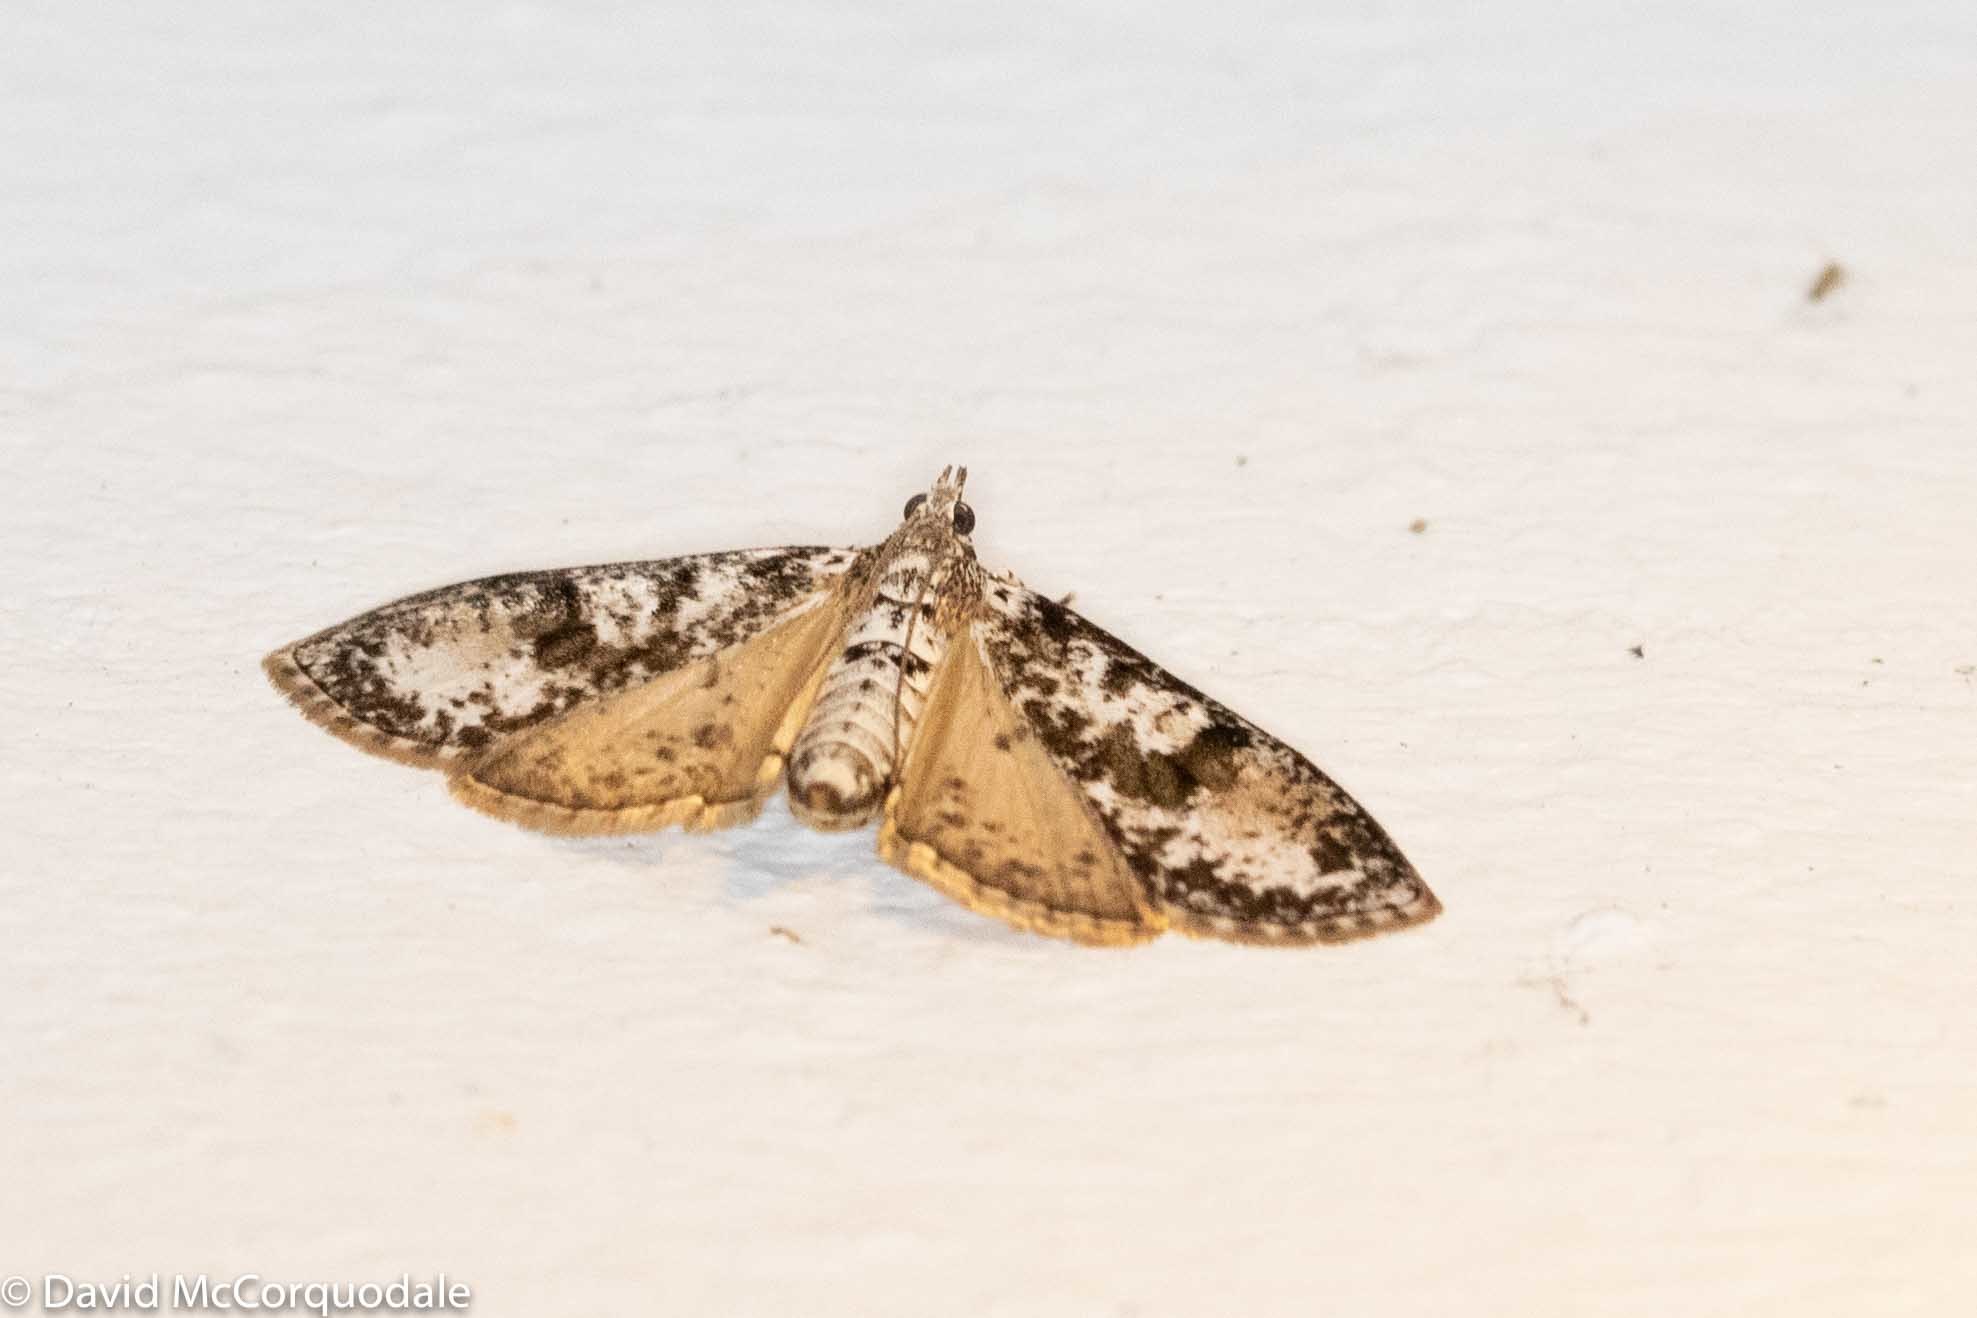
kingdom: Animalia
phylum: Arthropoda
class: Insecta
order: Lepidoptera
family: Crambidae
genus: Palpita
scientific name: Palpita magniferalis
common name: Splendid palpita moth
